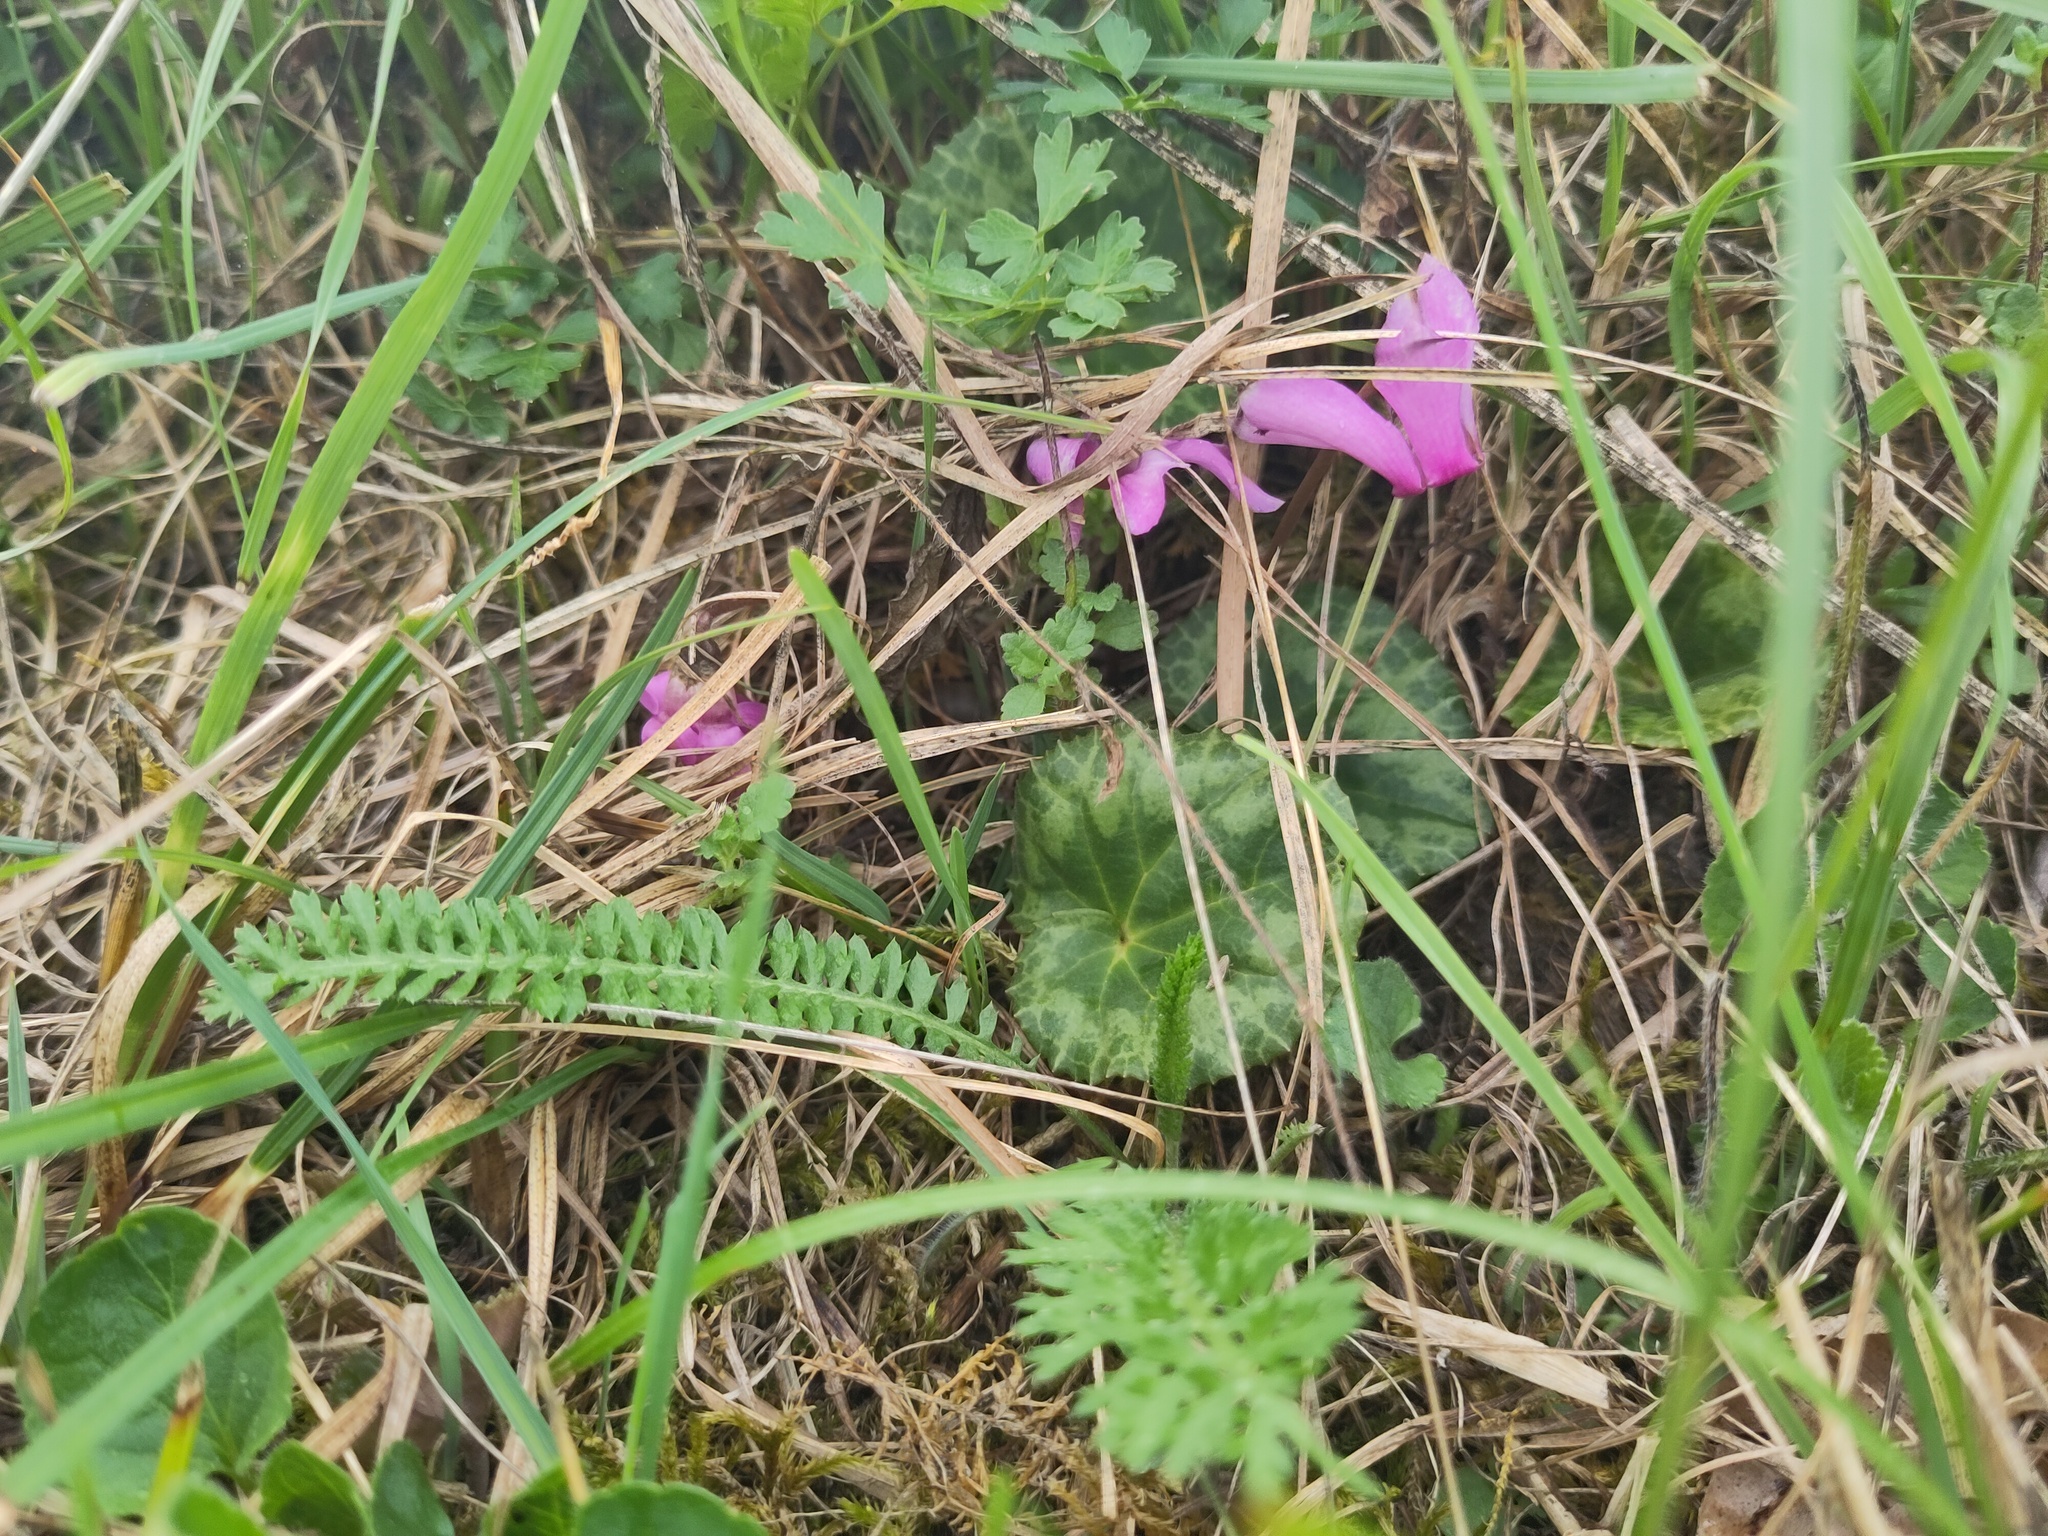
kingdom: Plantae
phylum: Tracheophyta
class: Magnoliopsida
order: Ericales
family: Primulaceae
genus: Cyclamen
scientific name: Cyclamen purpurascens
